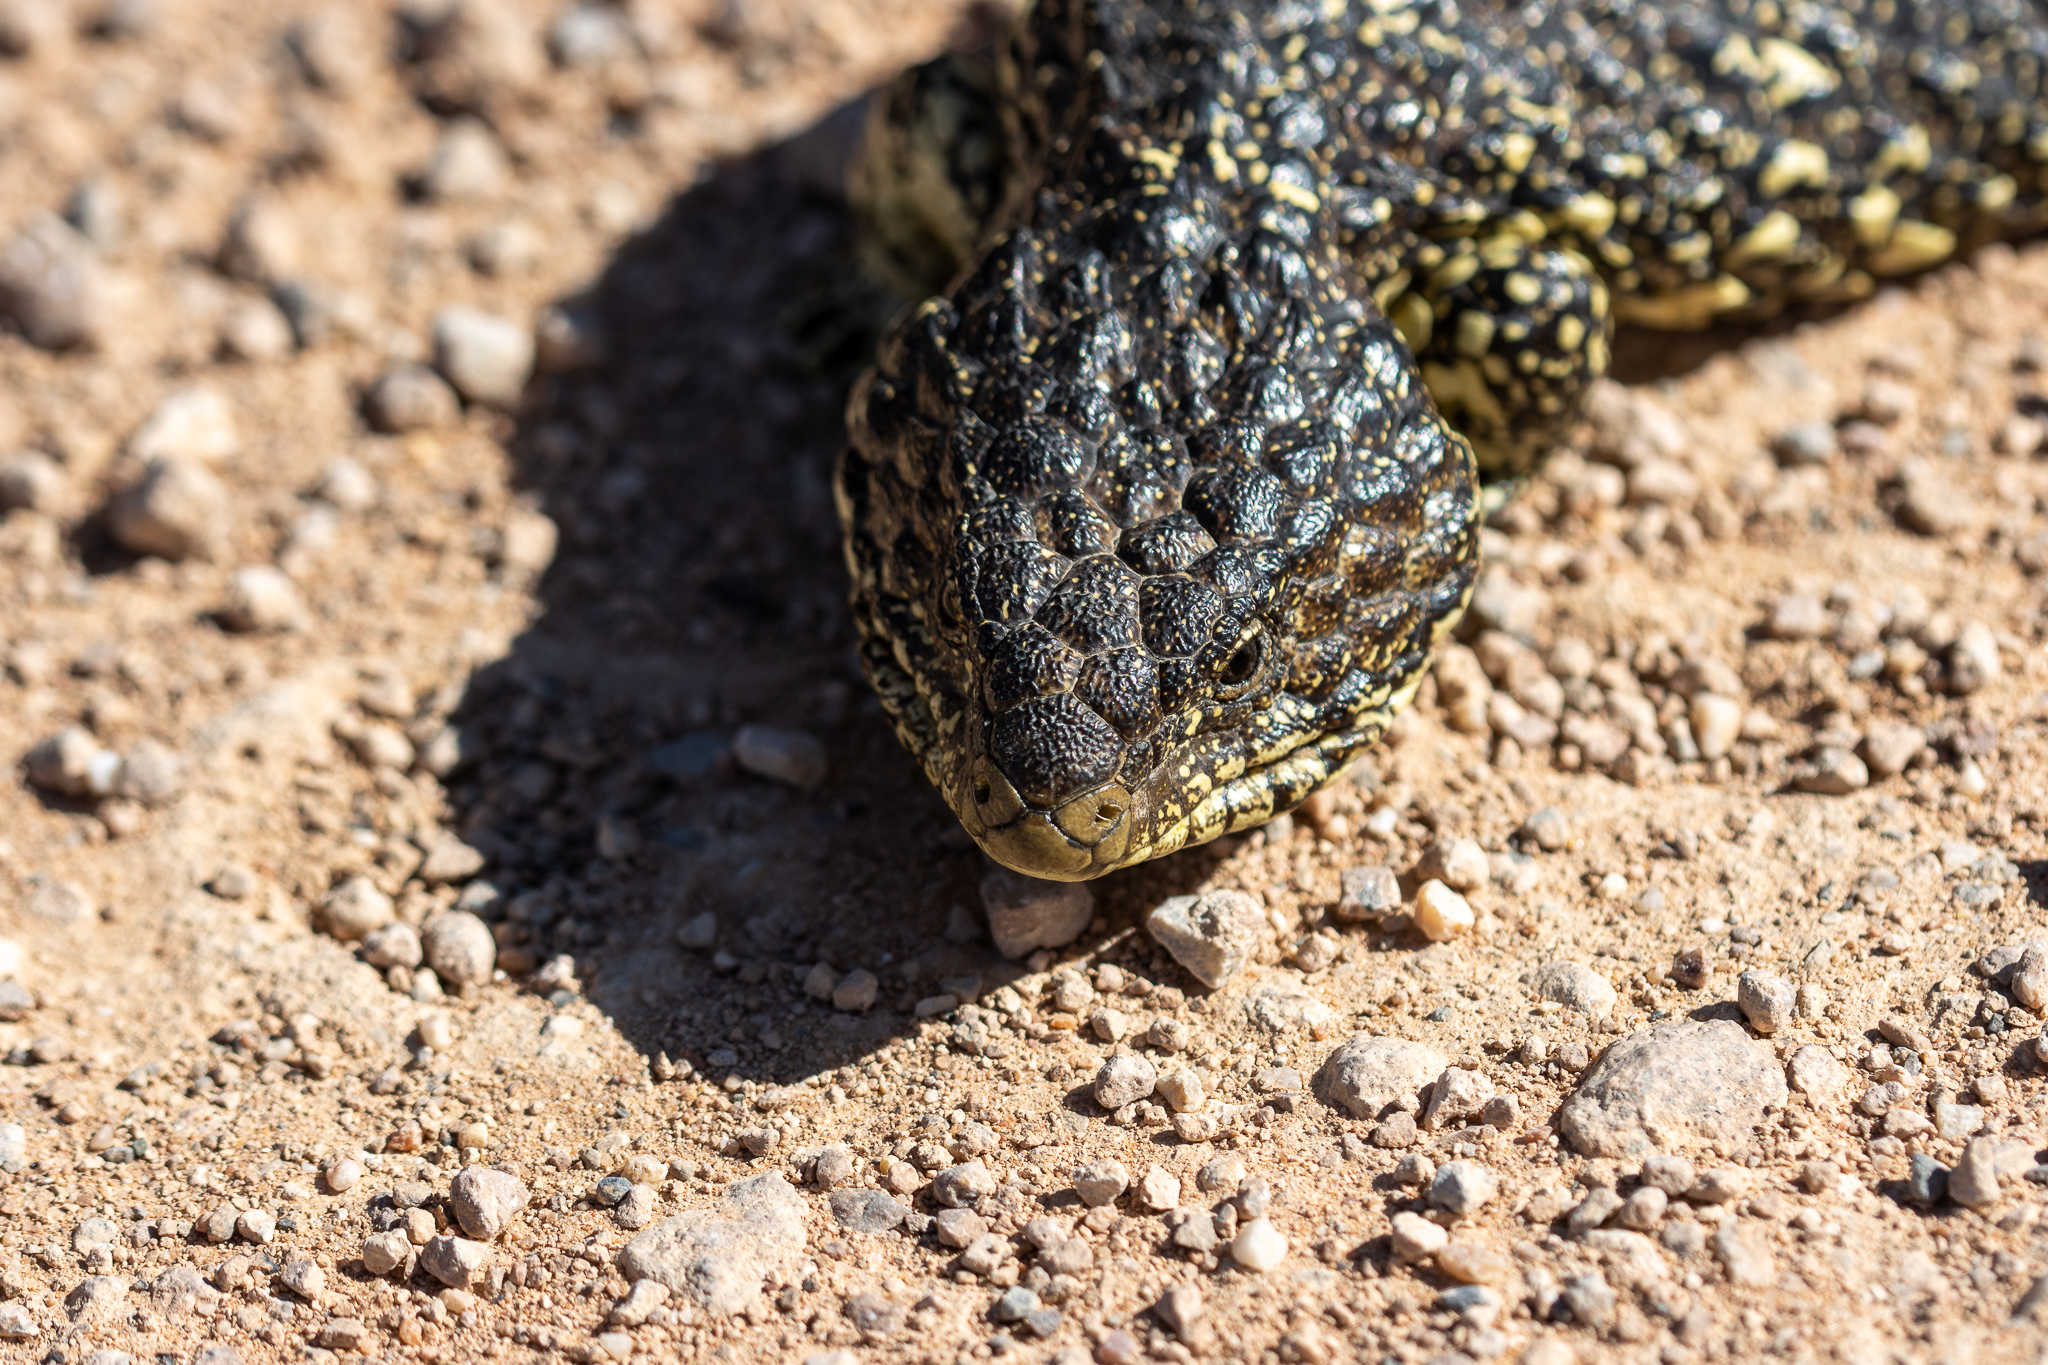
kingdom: Animalia
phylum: Chordata
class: Squamata
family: Scincidae
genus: Tiliqua
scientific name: Tiliqua rugosa
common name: Pinecone lizard
